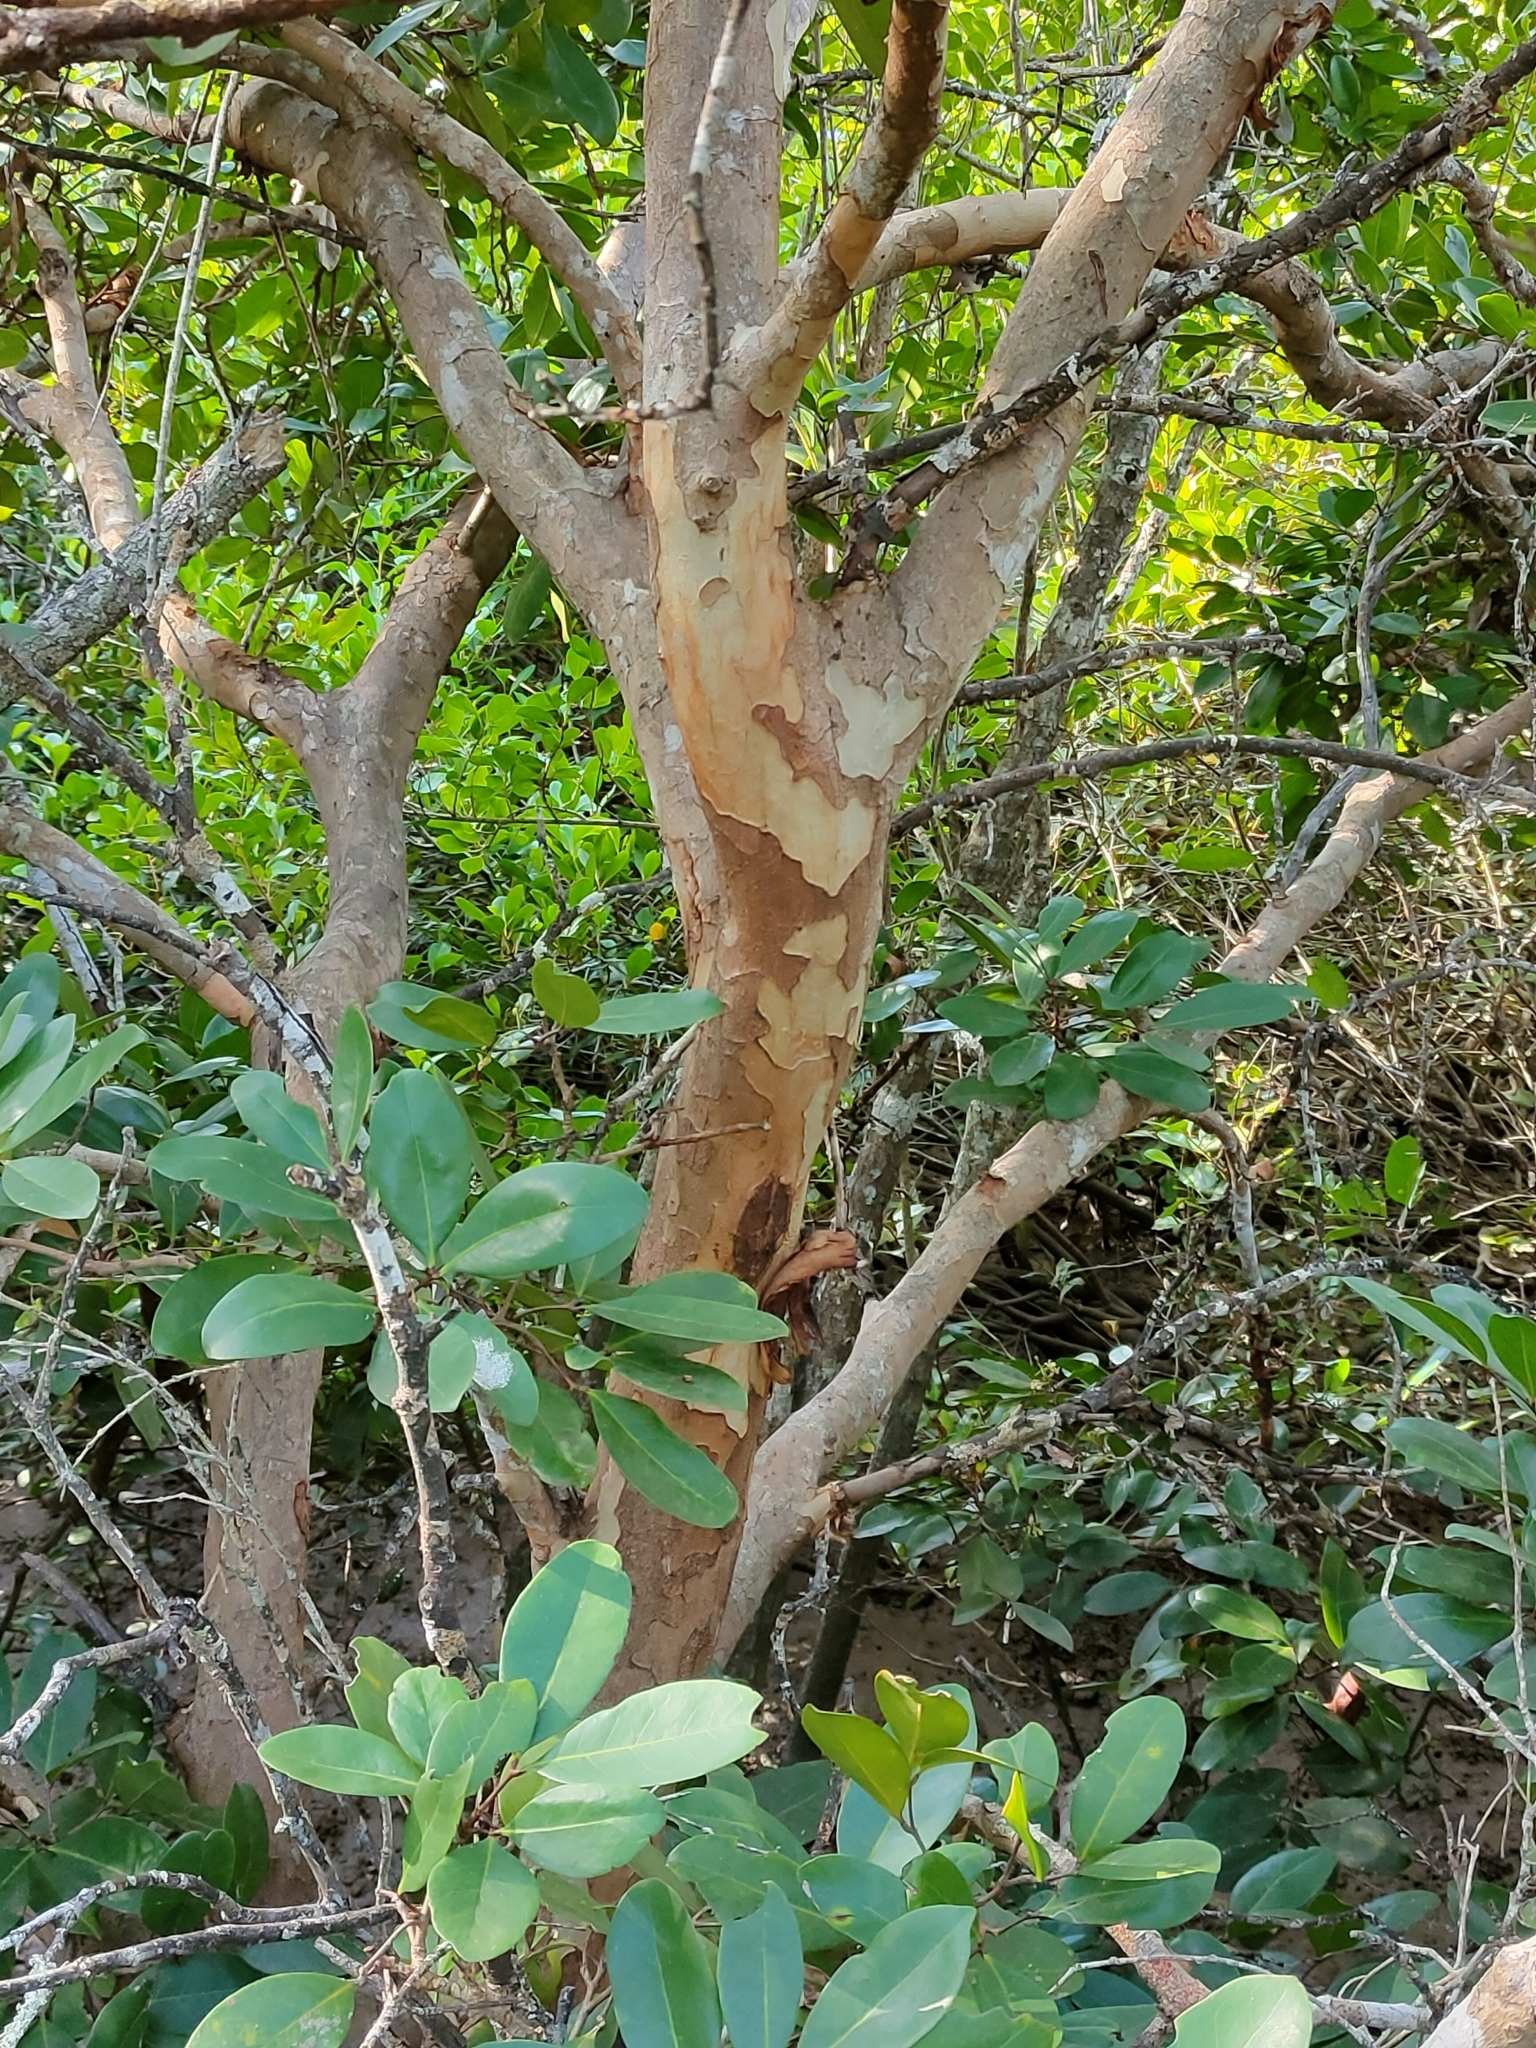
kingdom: Plantae
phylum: Tracheophyta
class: Magnoliopsida
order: Sapindales
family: Meliaceae
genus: Xylocarpus
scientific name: Xylocarpus granatum
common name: Apple mangrove
